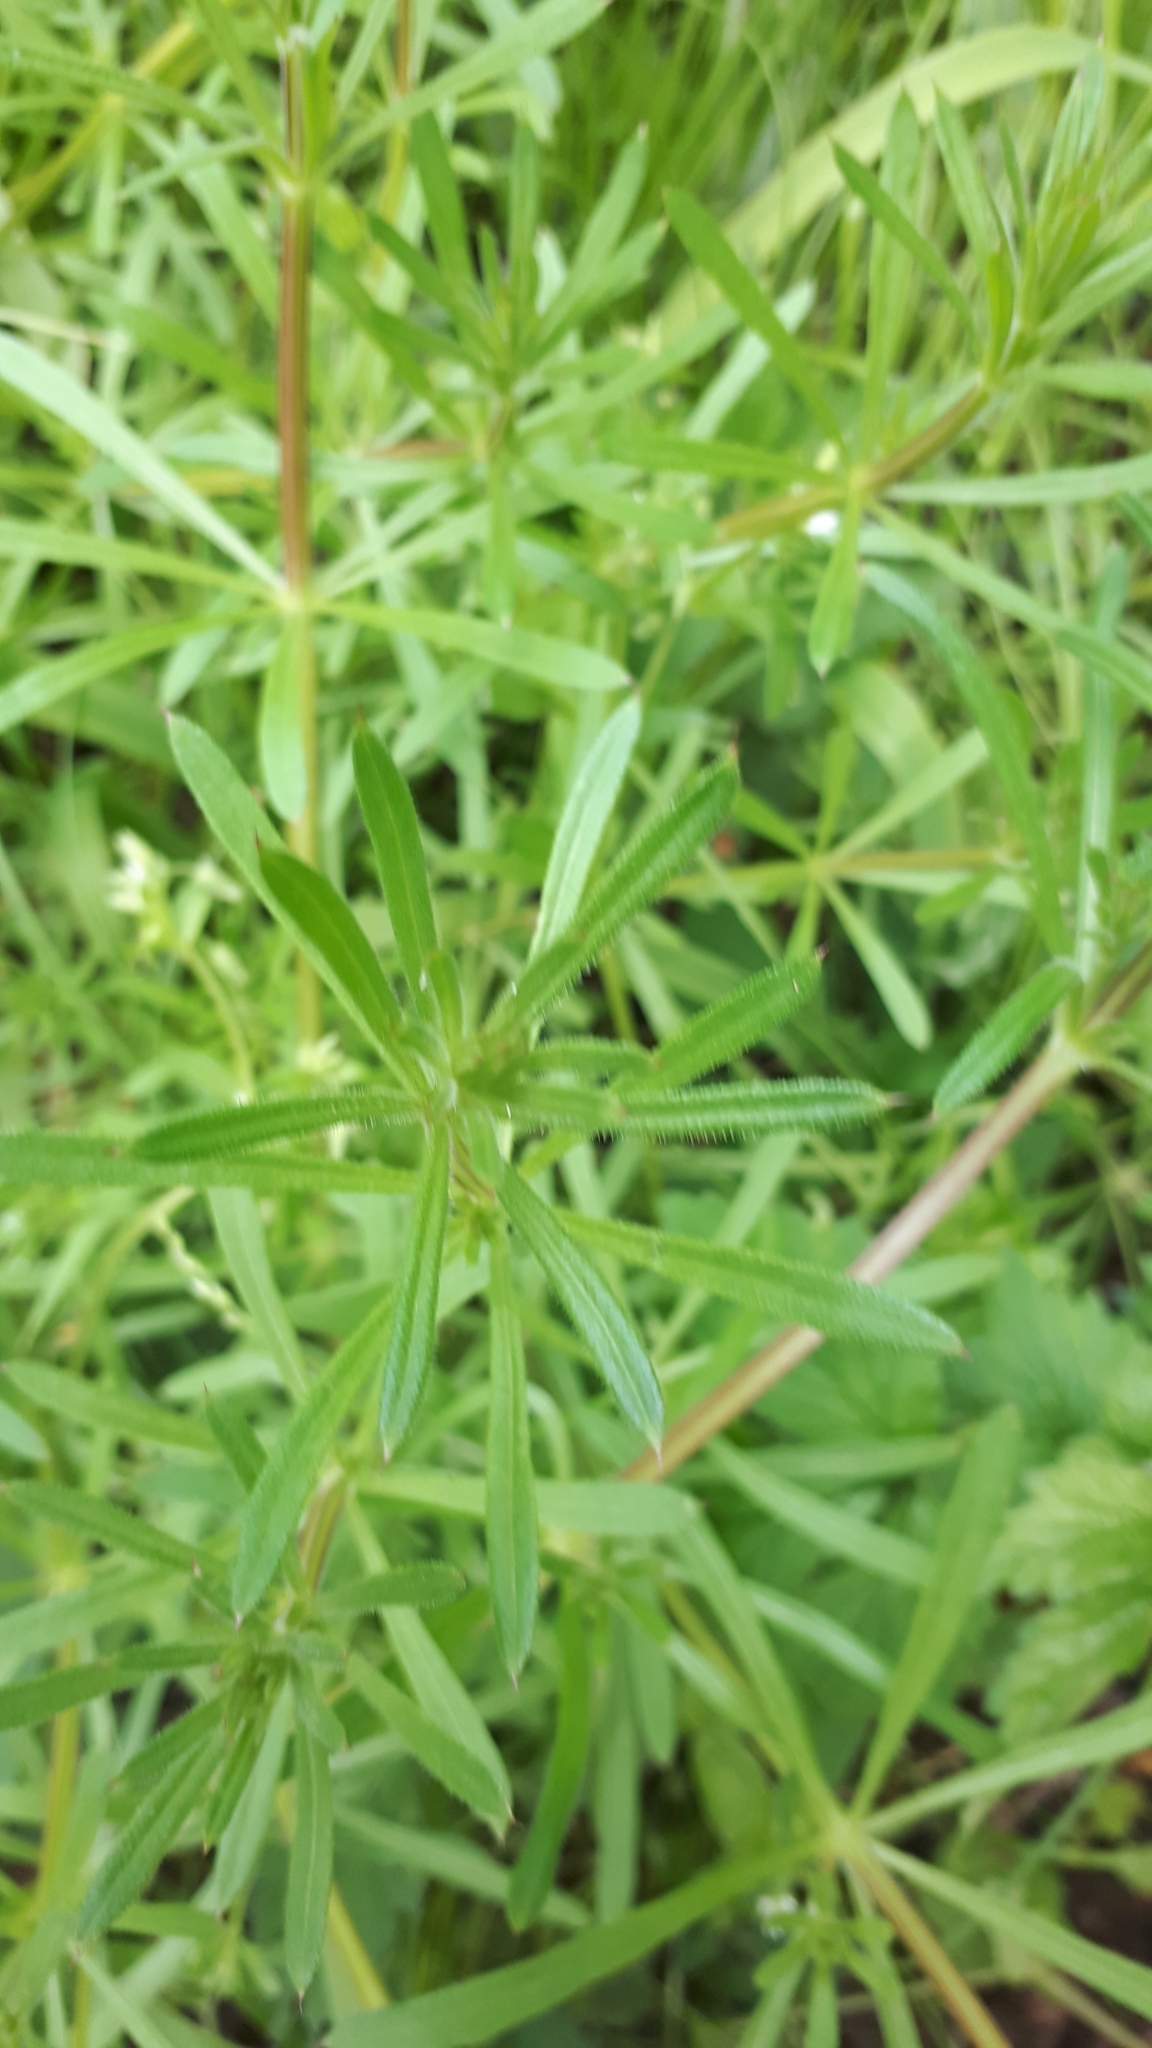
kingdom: Plantae
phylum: Tracheophyta
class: Magnoliopsida
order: Gentianales
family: Rubiaceae
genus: Galium
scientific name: Galium aparine
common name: Cleavers
